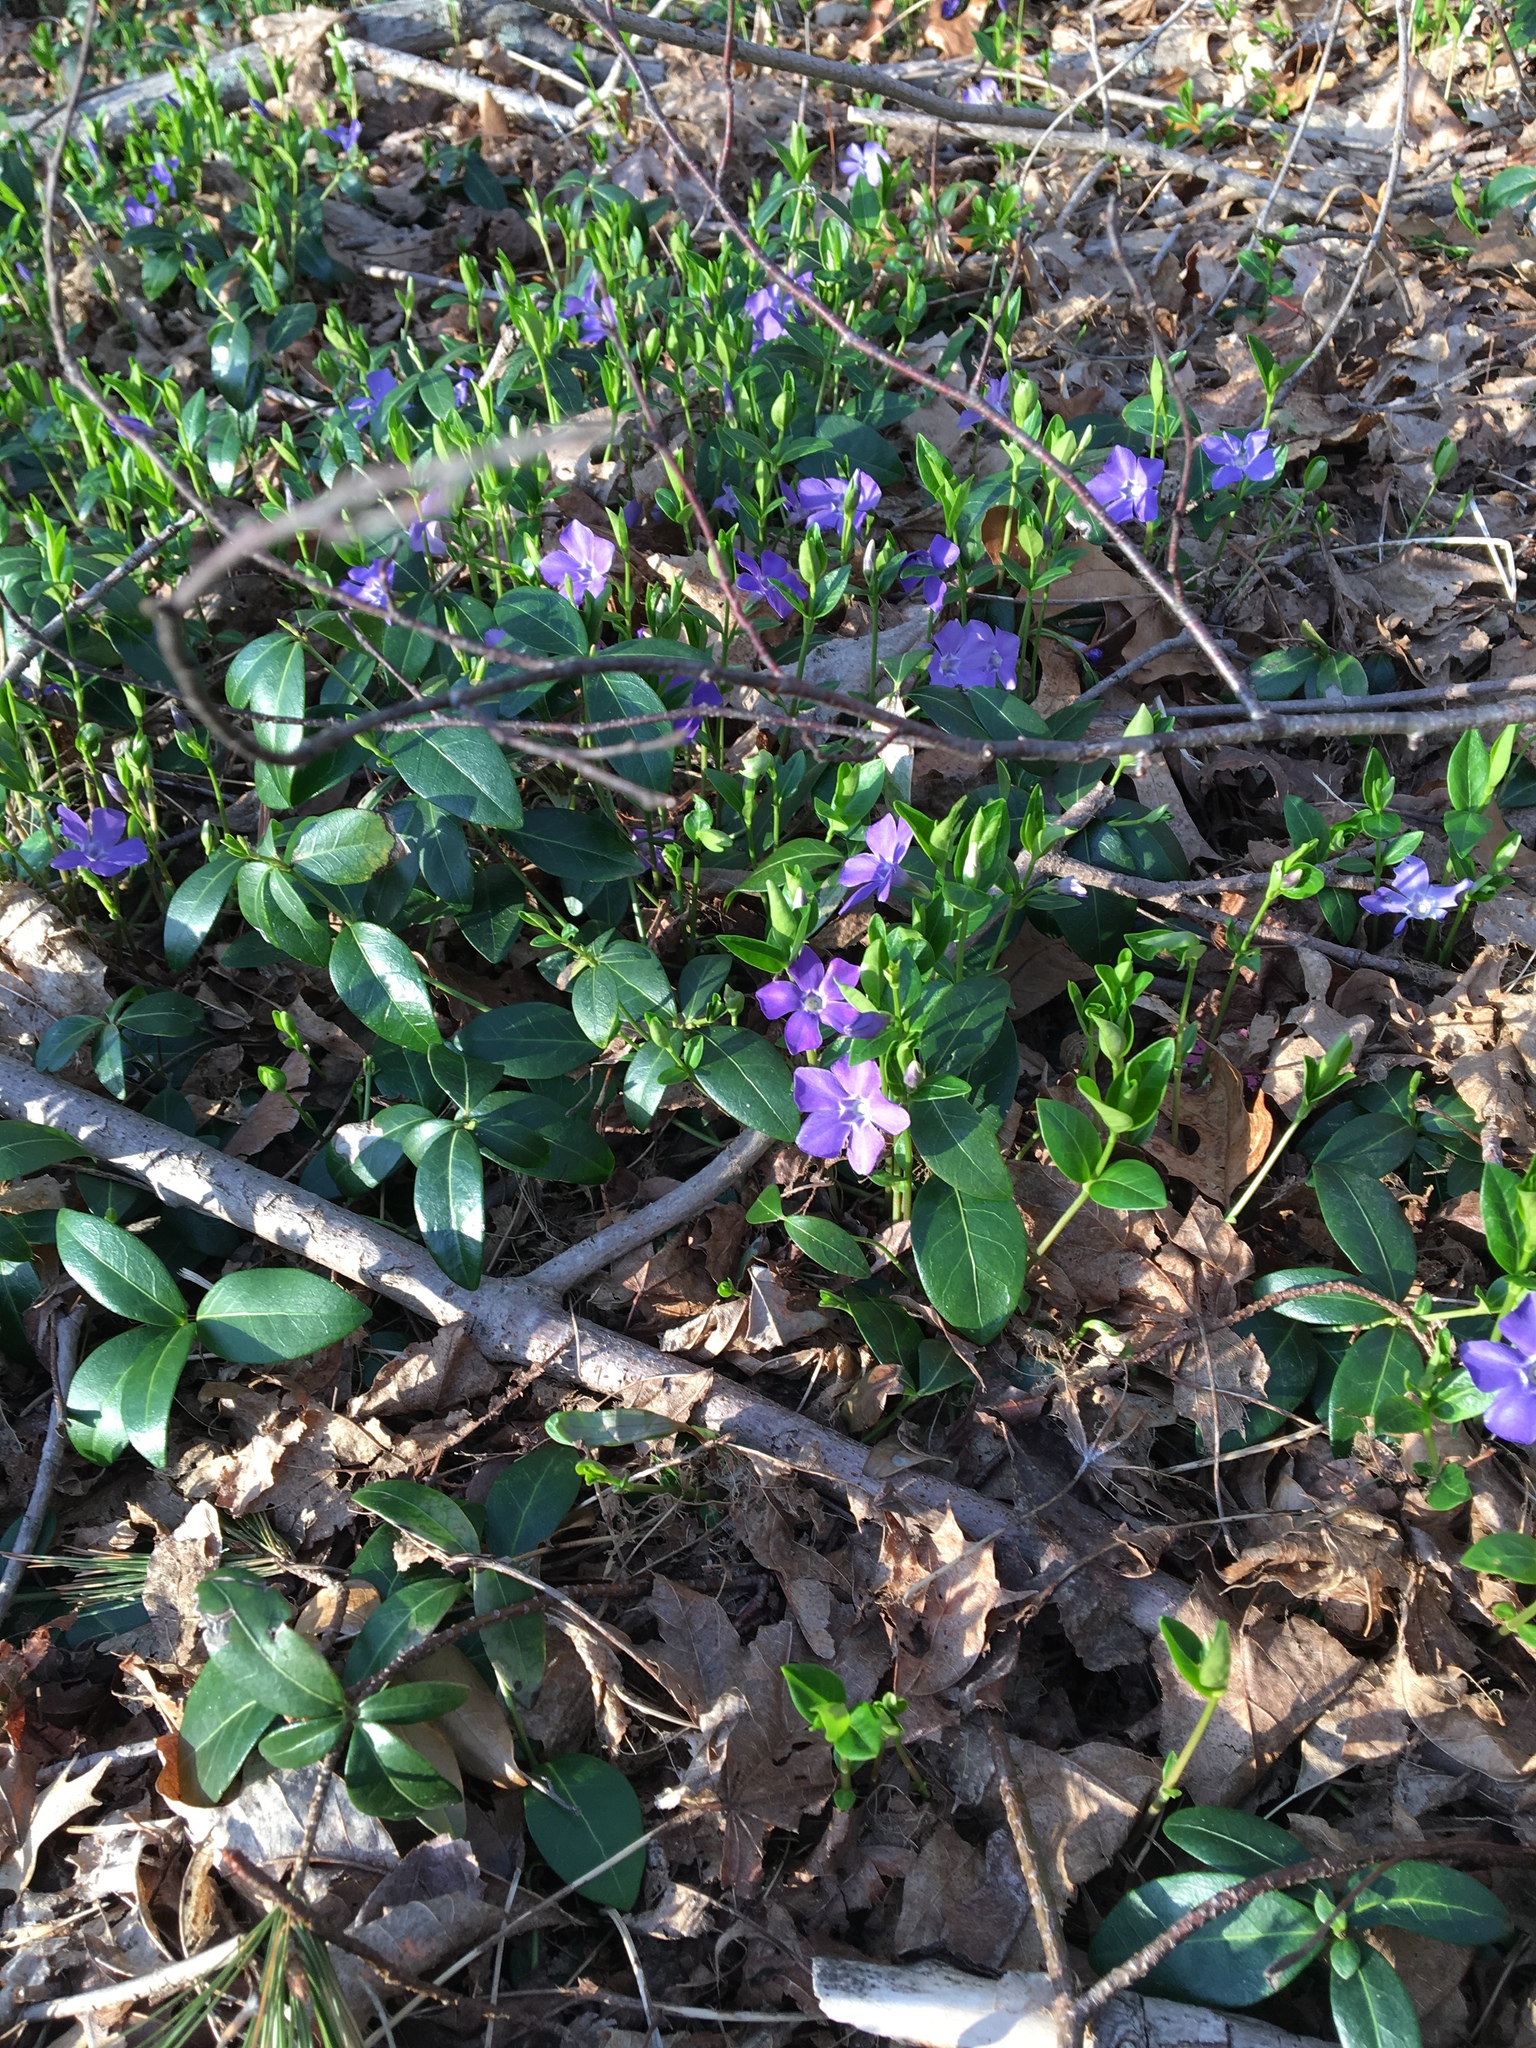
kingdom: Plantae
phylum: Tracheophyta
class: Magnoliopsida
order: Gentianales
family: Apocynaceae
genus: Vinca
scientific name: Vinca minor
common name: Lesser periwinkle
